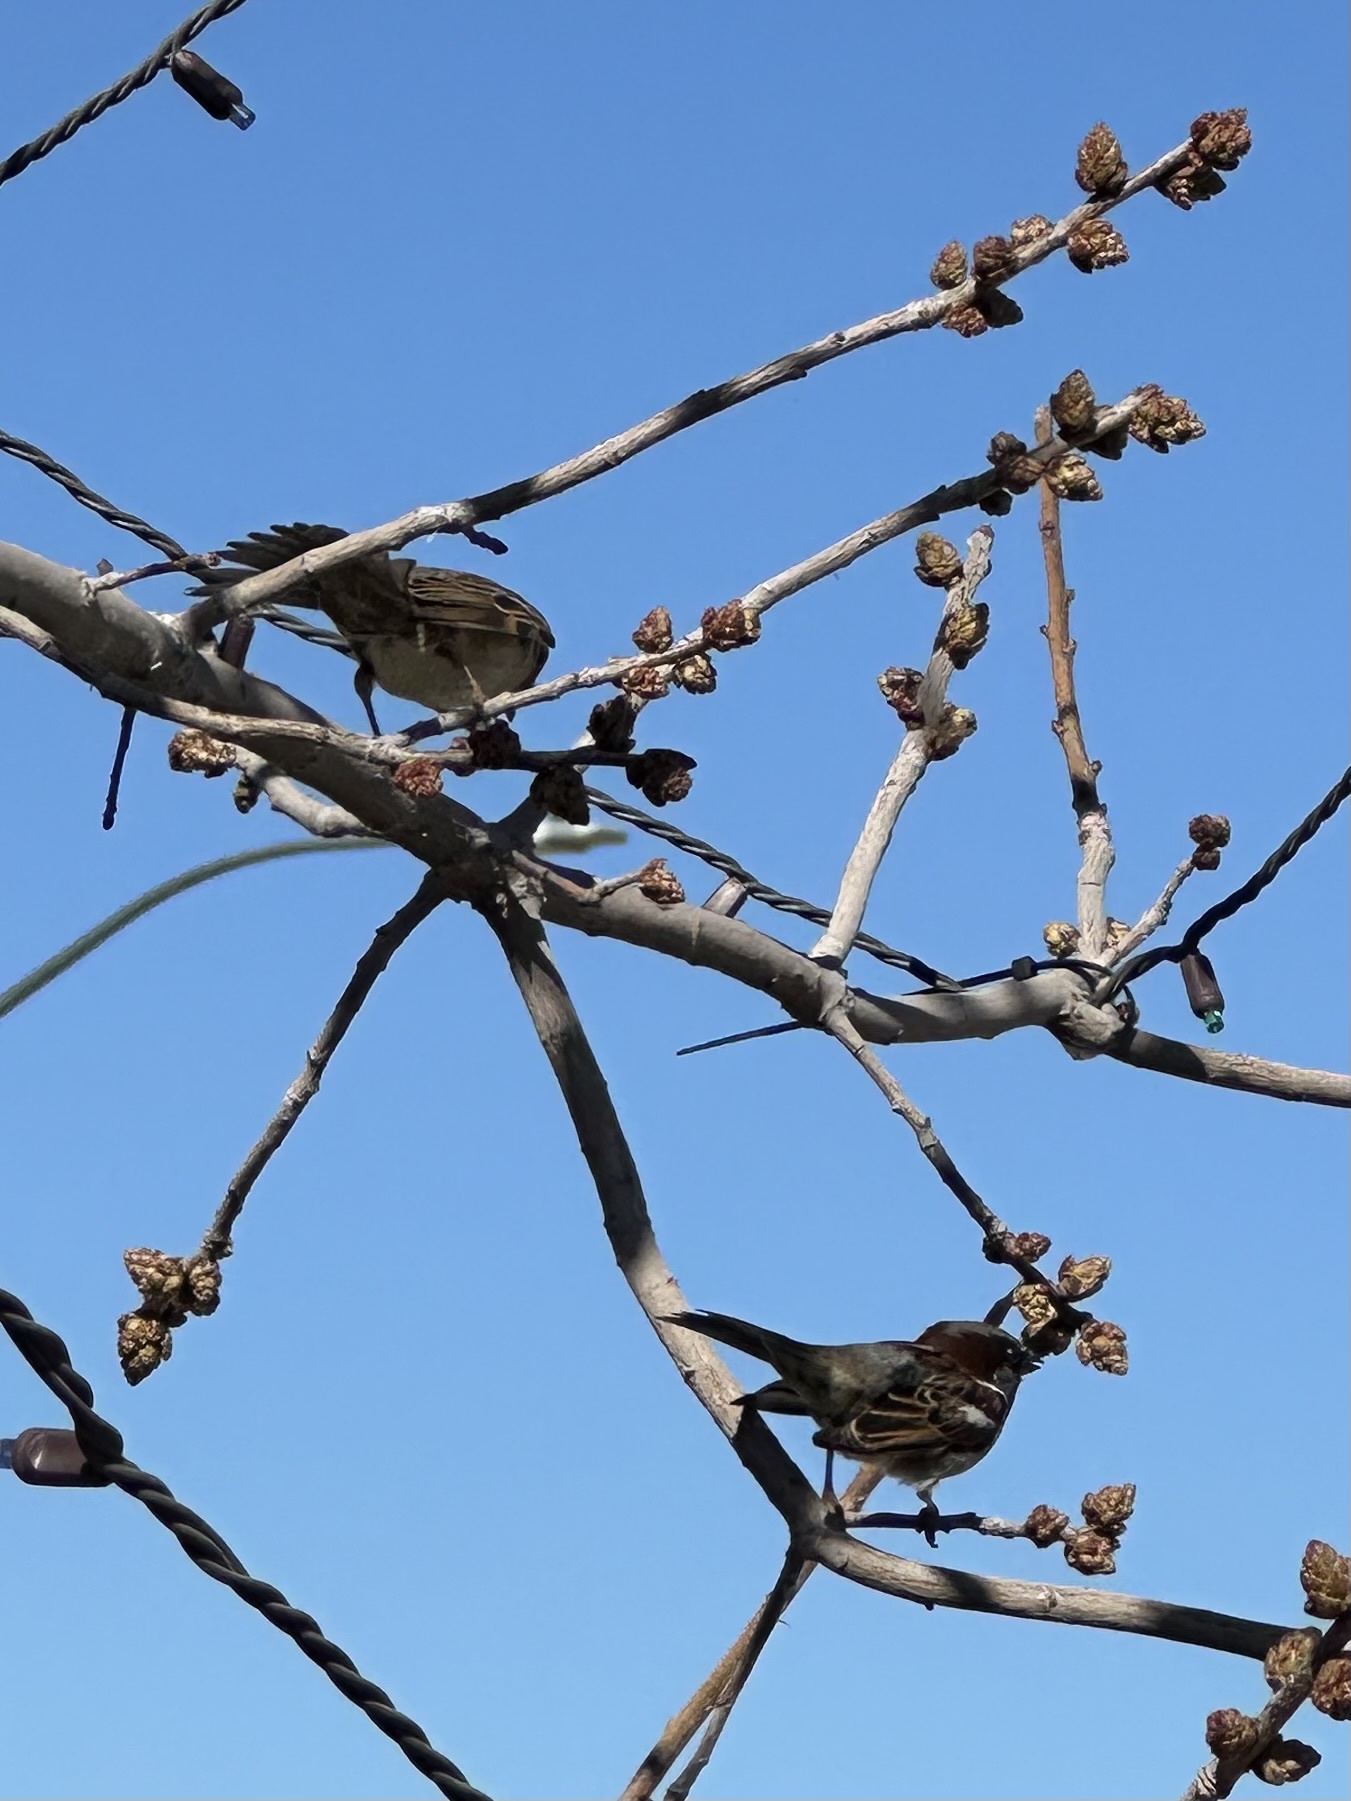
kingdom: Animalia
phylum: Chordata
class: Aves
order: Passeriformes
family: Passeridae
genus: Passer
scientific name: Passer domesticus
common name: House sparrow
